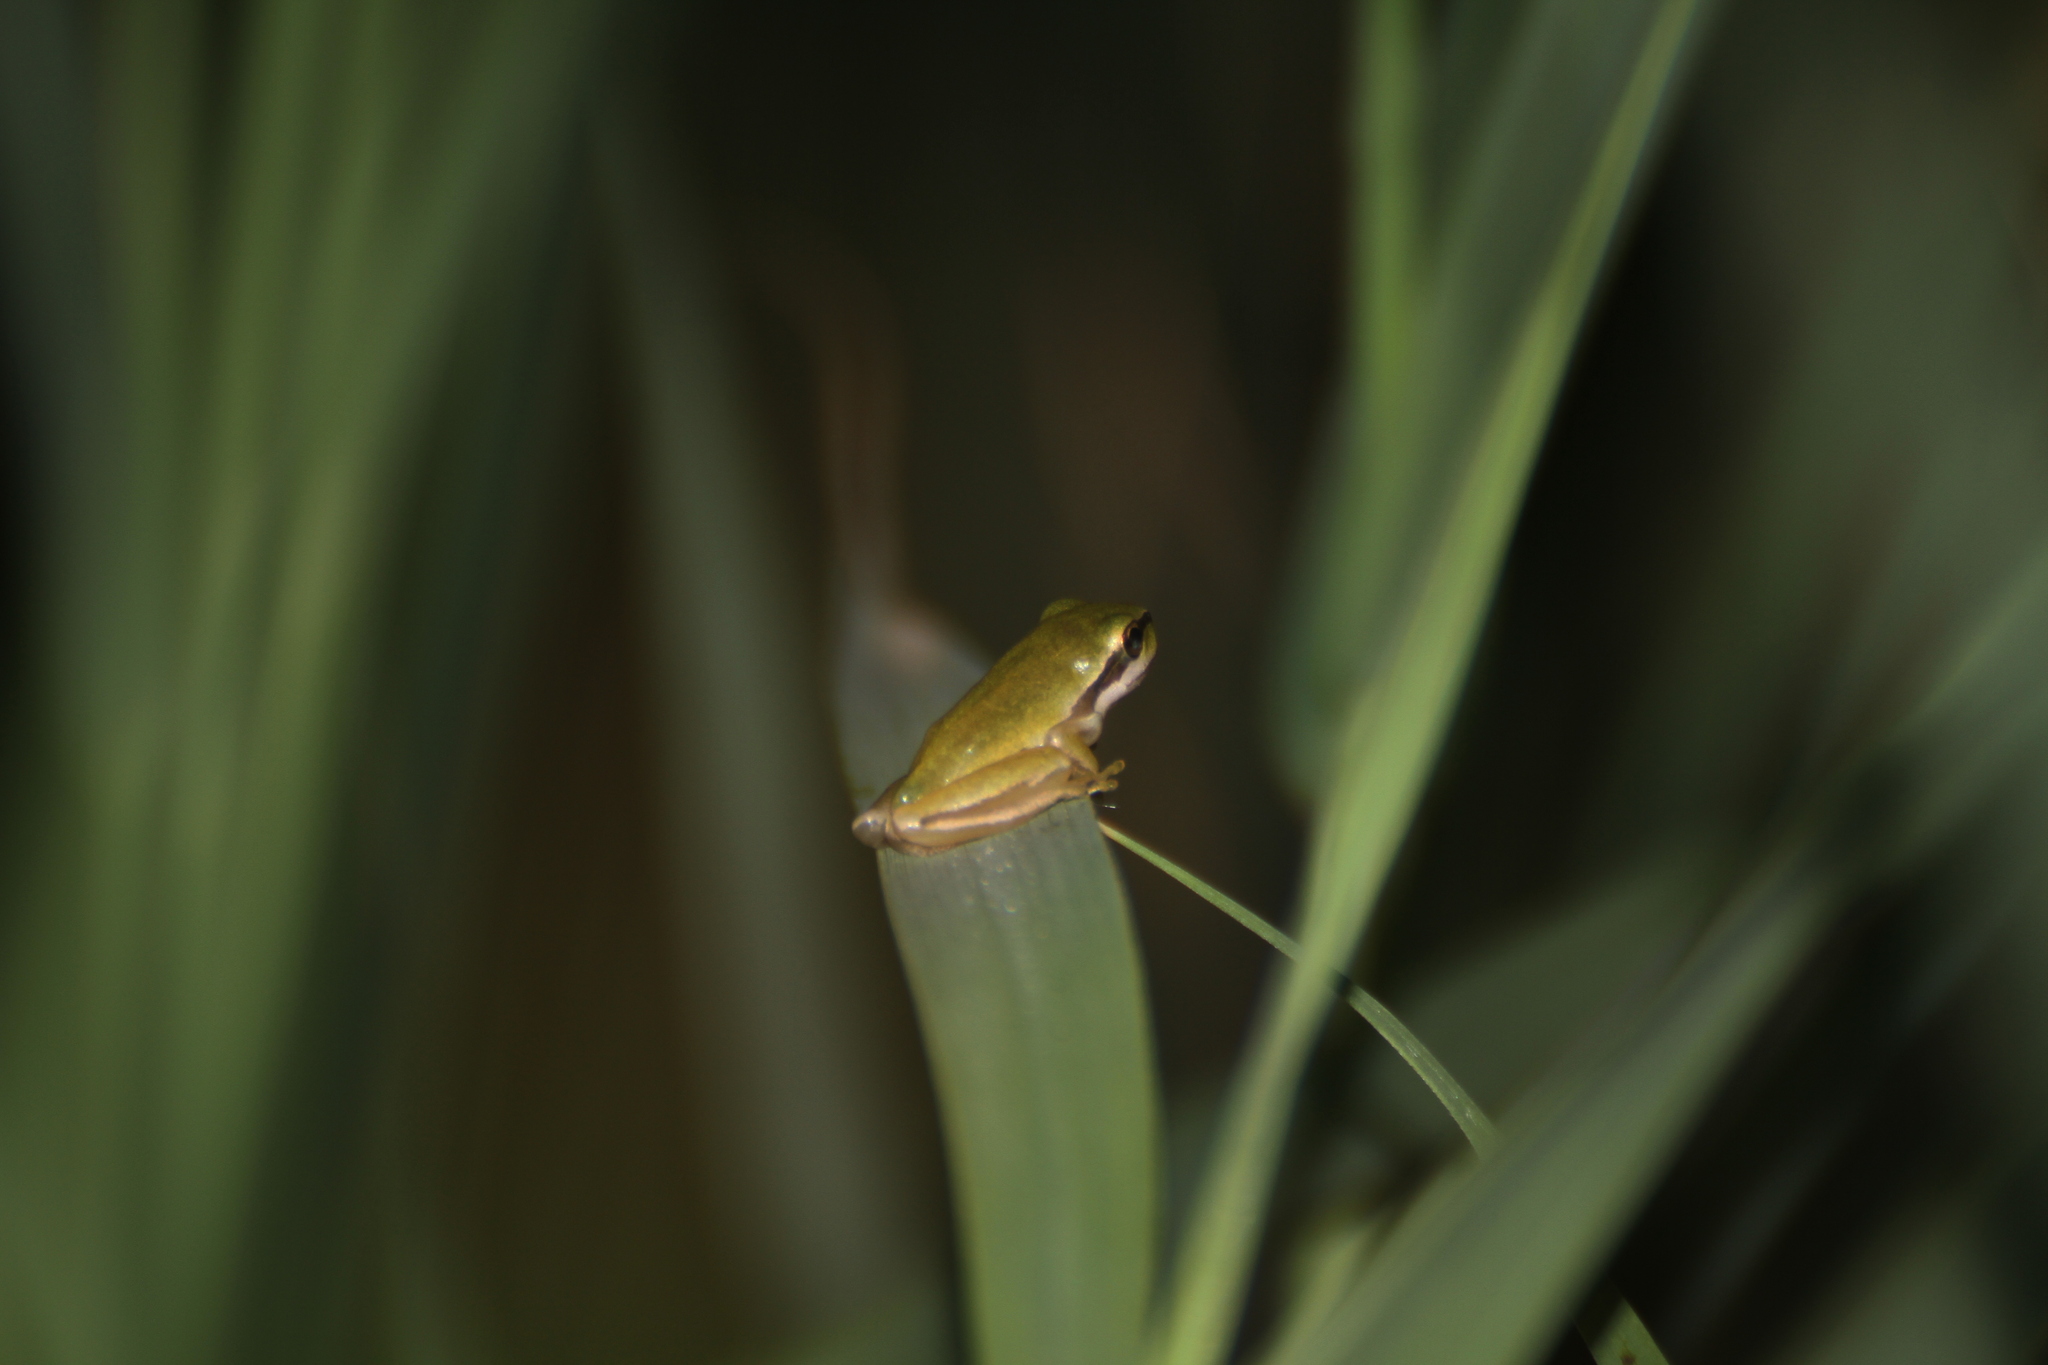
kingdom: Animalia
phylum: Chordata
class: Amphibia
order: Anura
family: Hylidae
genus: Hyla
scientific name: Hyla meridionalis
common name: Stripeless tree frog
